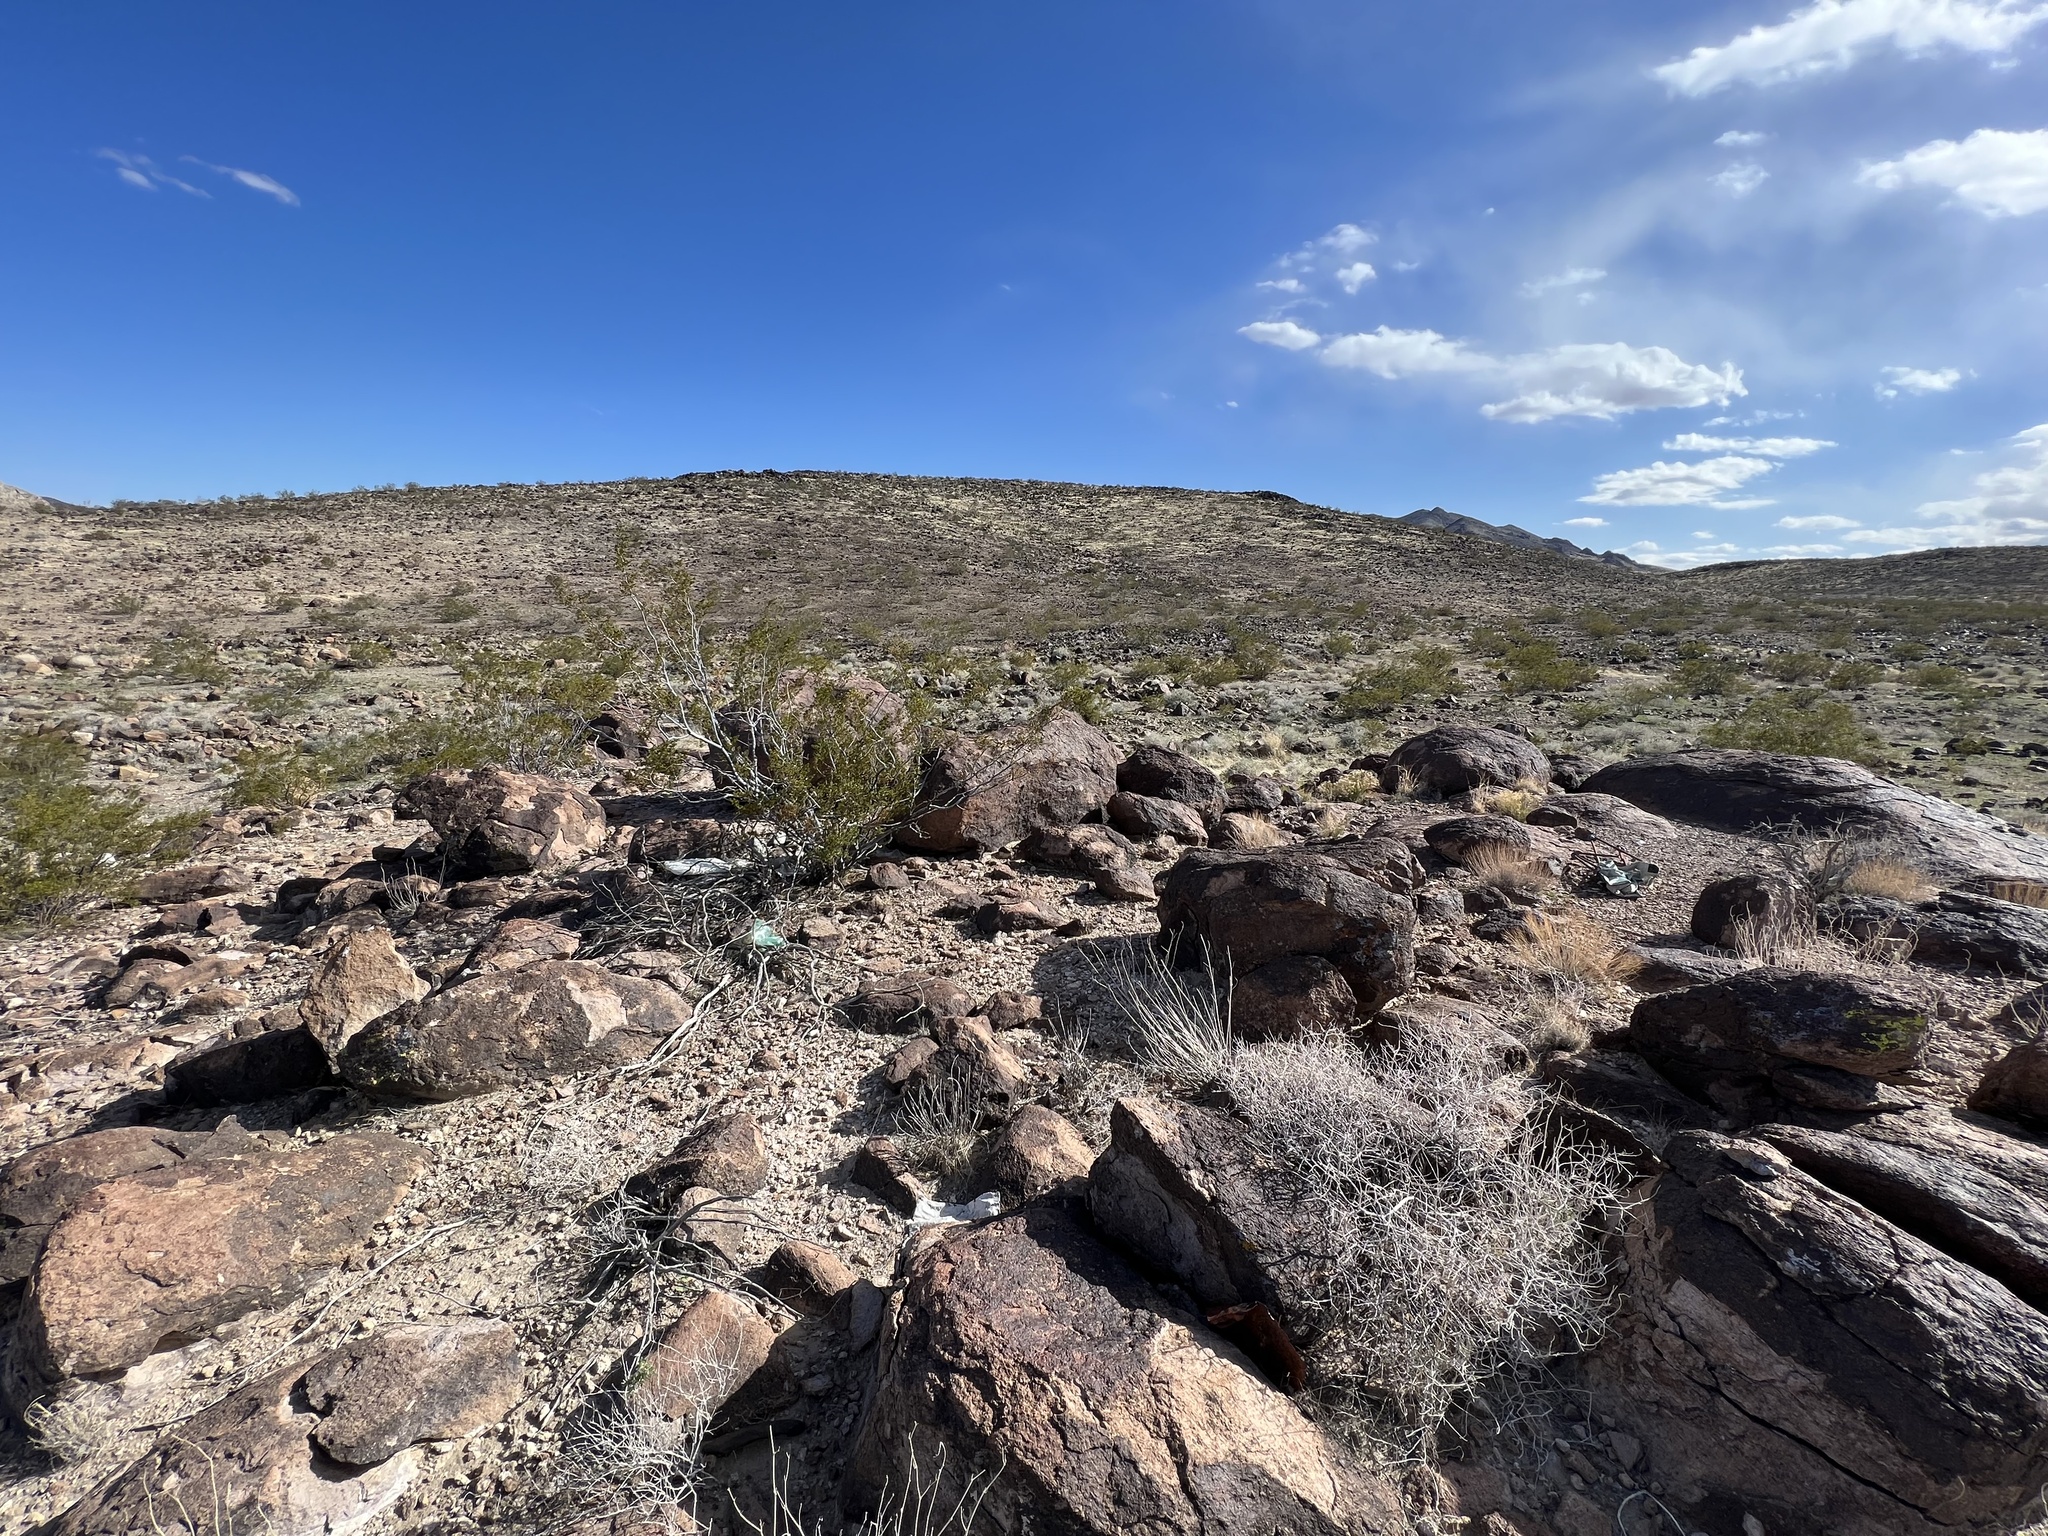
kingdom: Plantae
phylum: Tracheophyta
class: Magnoliopsida
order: Zygophyllales
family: Zygophyllaceae
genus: Larrea
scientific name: Larrea tridentata
